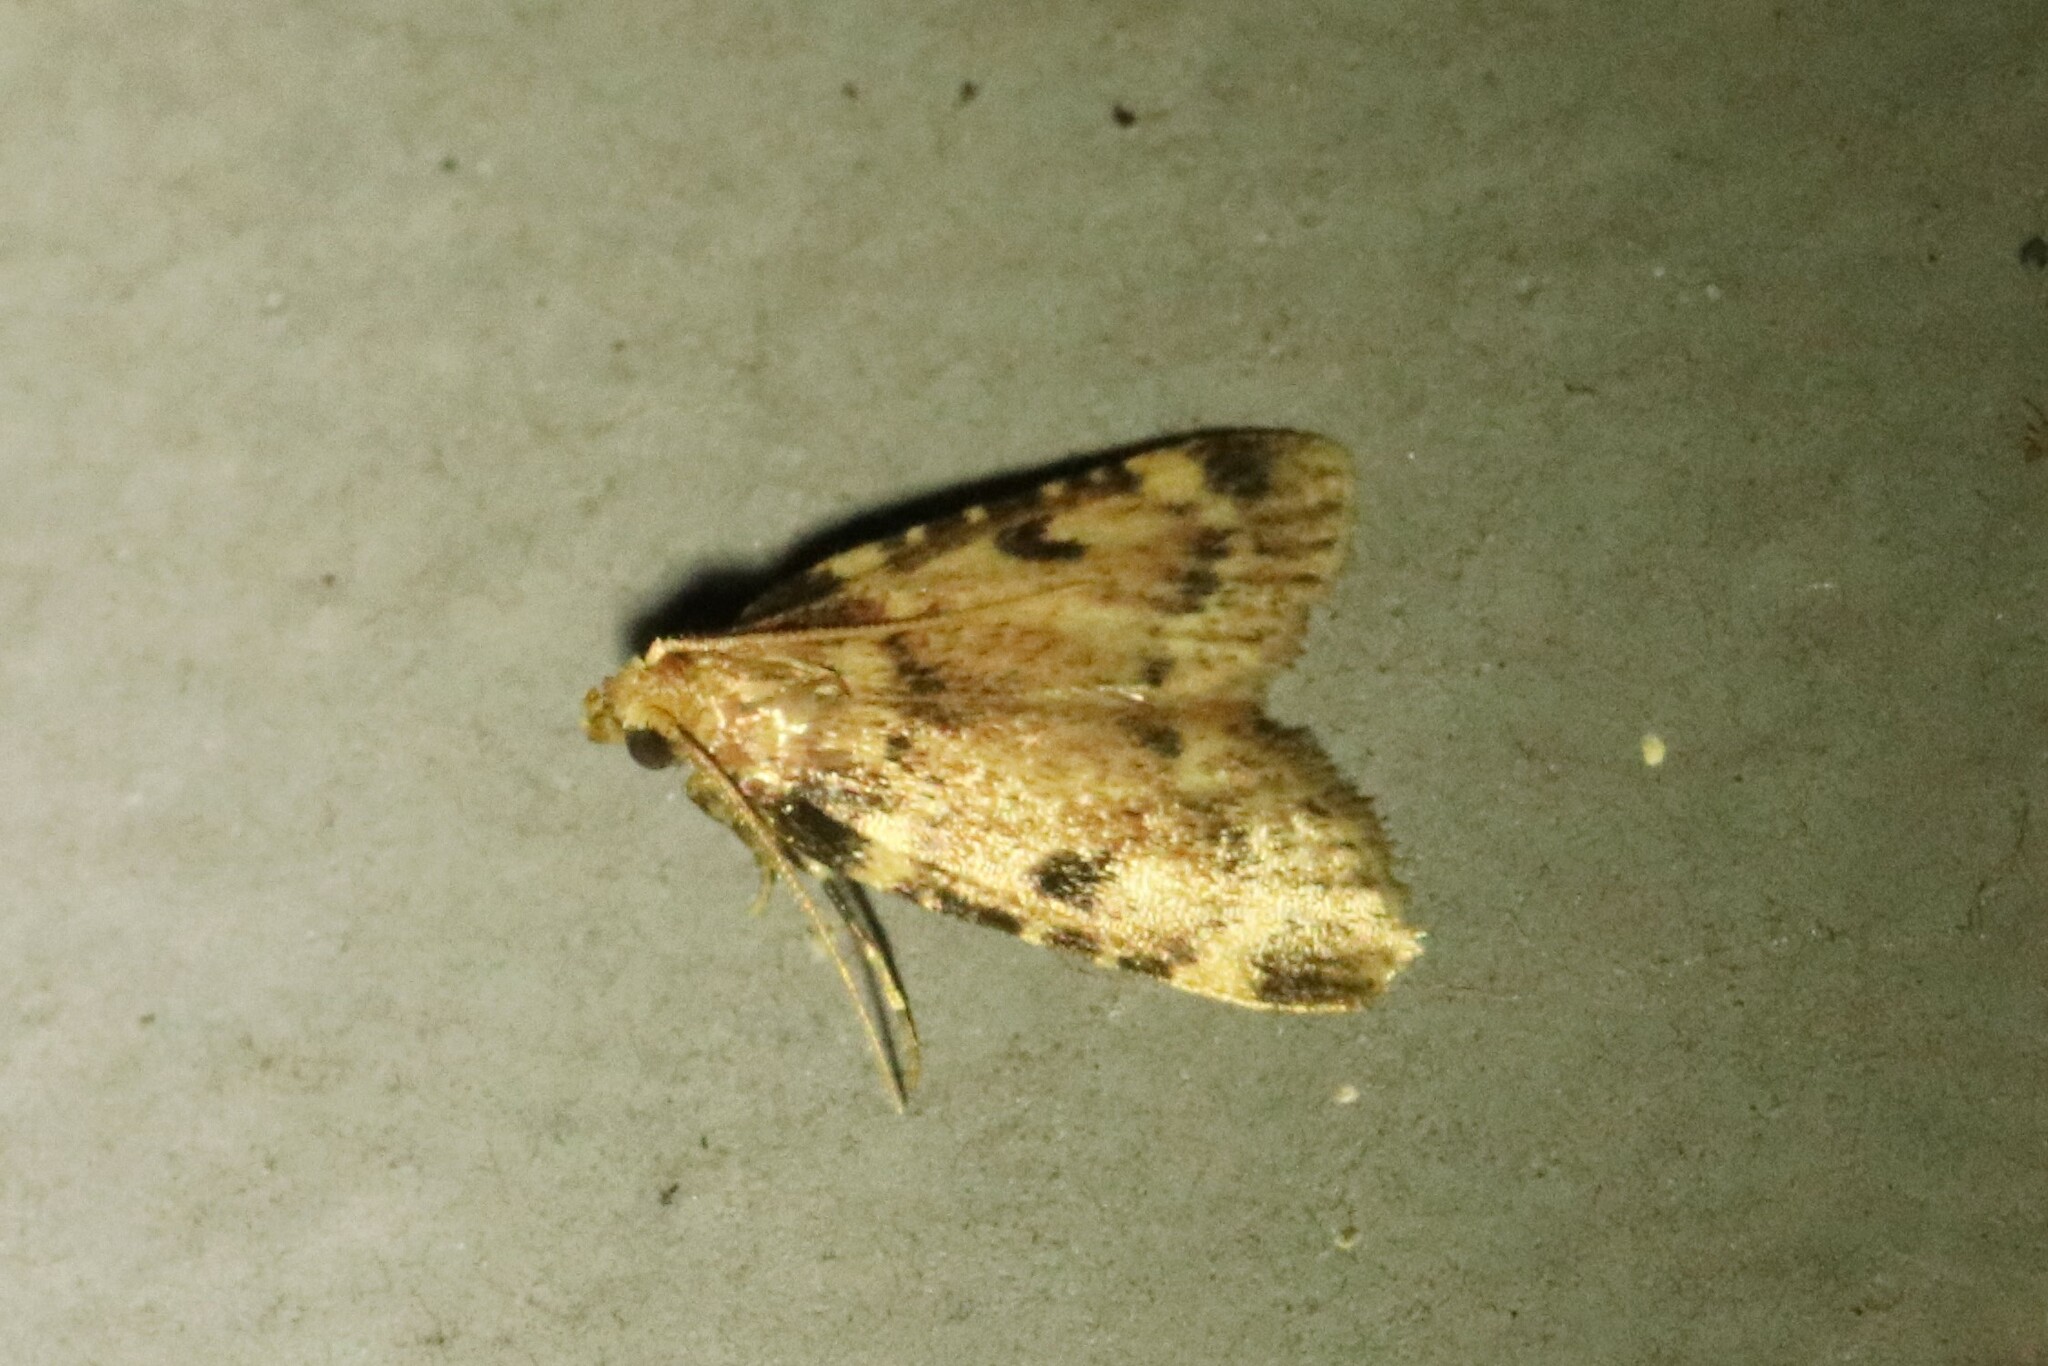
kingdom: Animalia
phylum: Arthropoda
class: Insecta
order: Lepidoptera
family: Pyralidae
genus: Aglossa
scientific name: Aglossa costiferalis
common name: Calico pyralid moth
